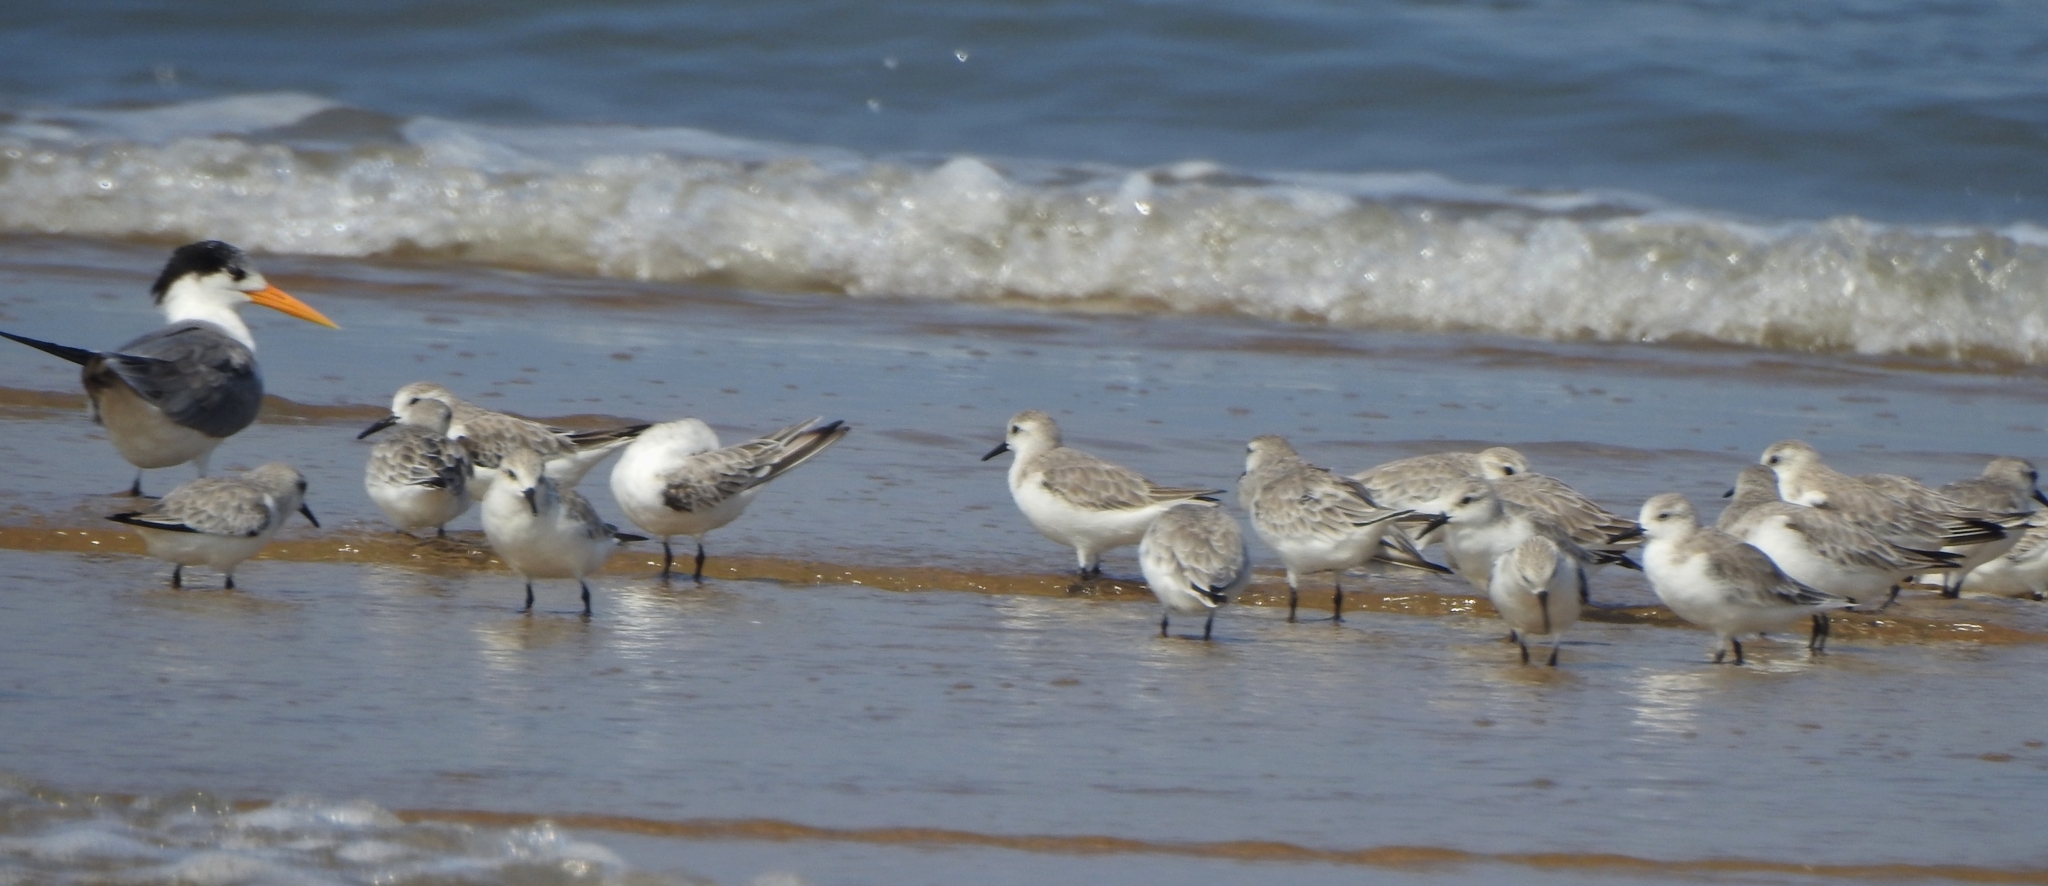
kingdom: Animalia
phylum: Chordata
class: Aves
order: Charadriiformes
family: Scolopacidae
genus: Calidris
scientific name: Calidris alba
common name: Sanderling
